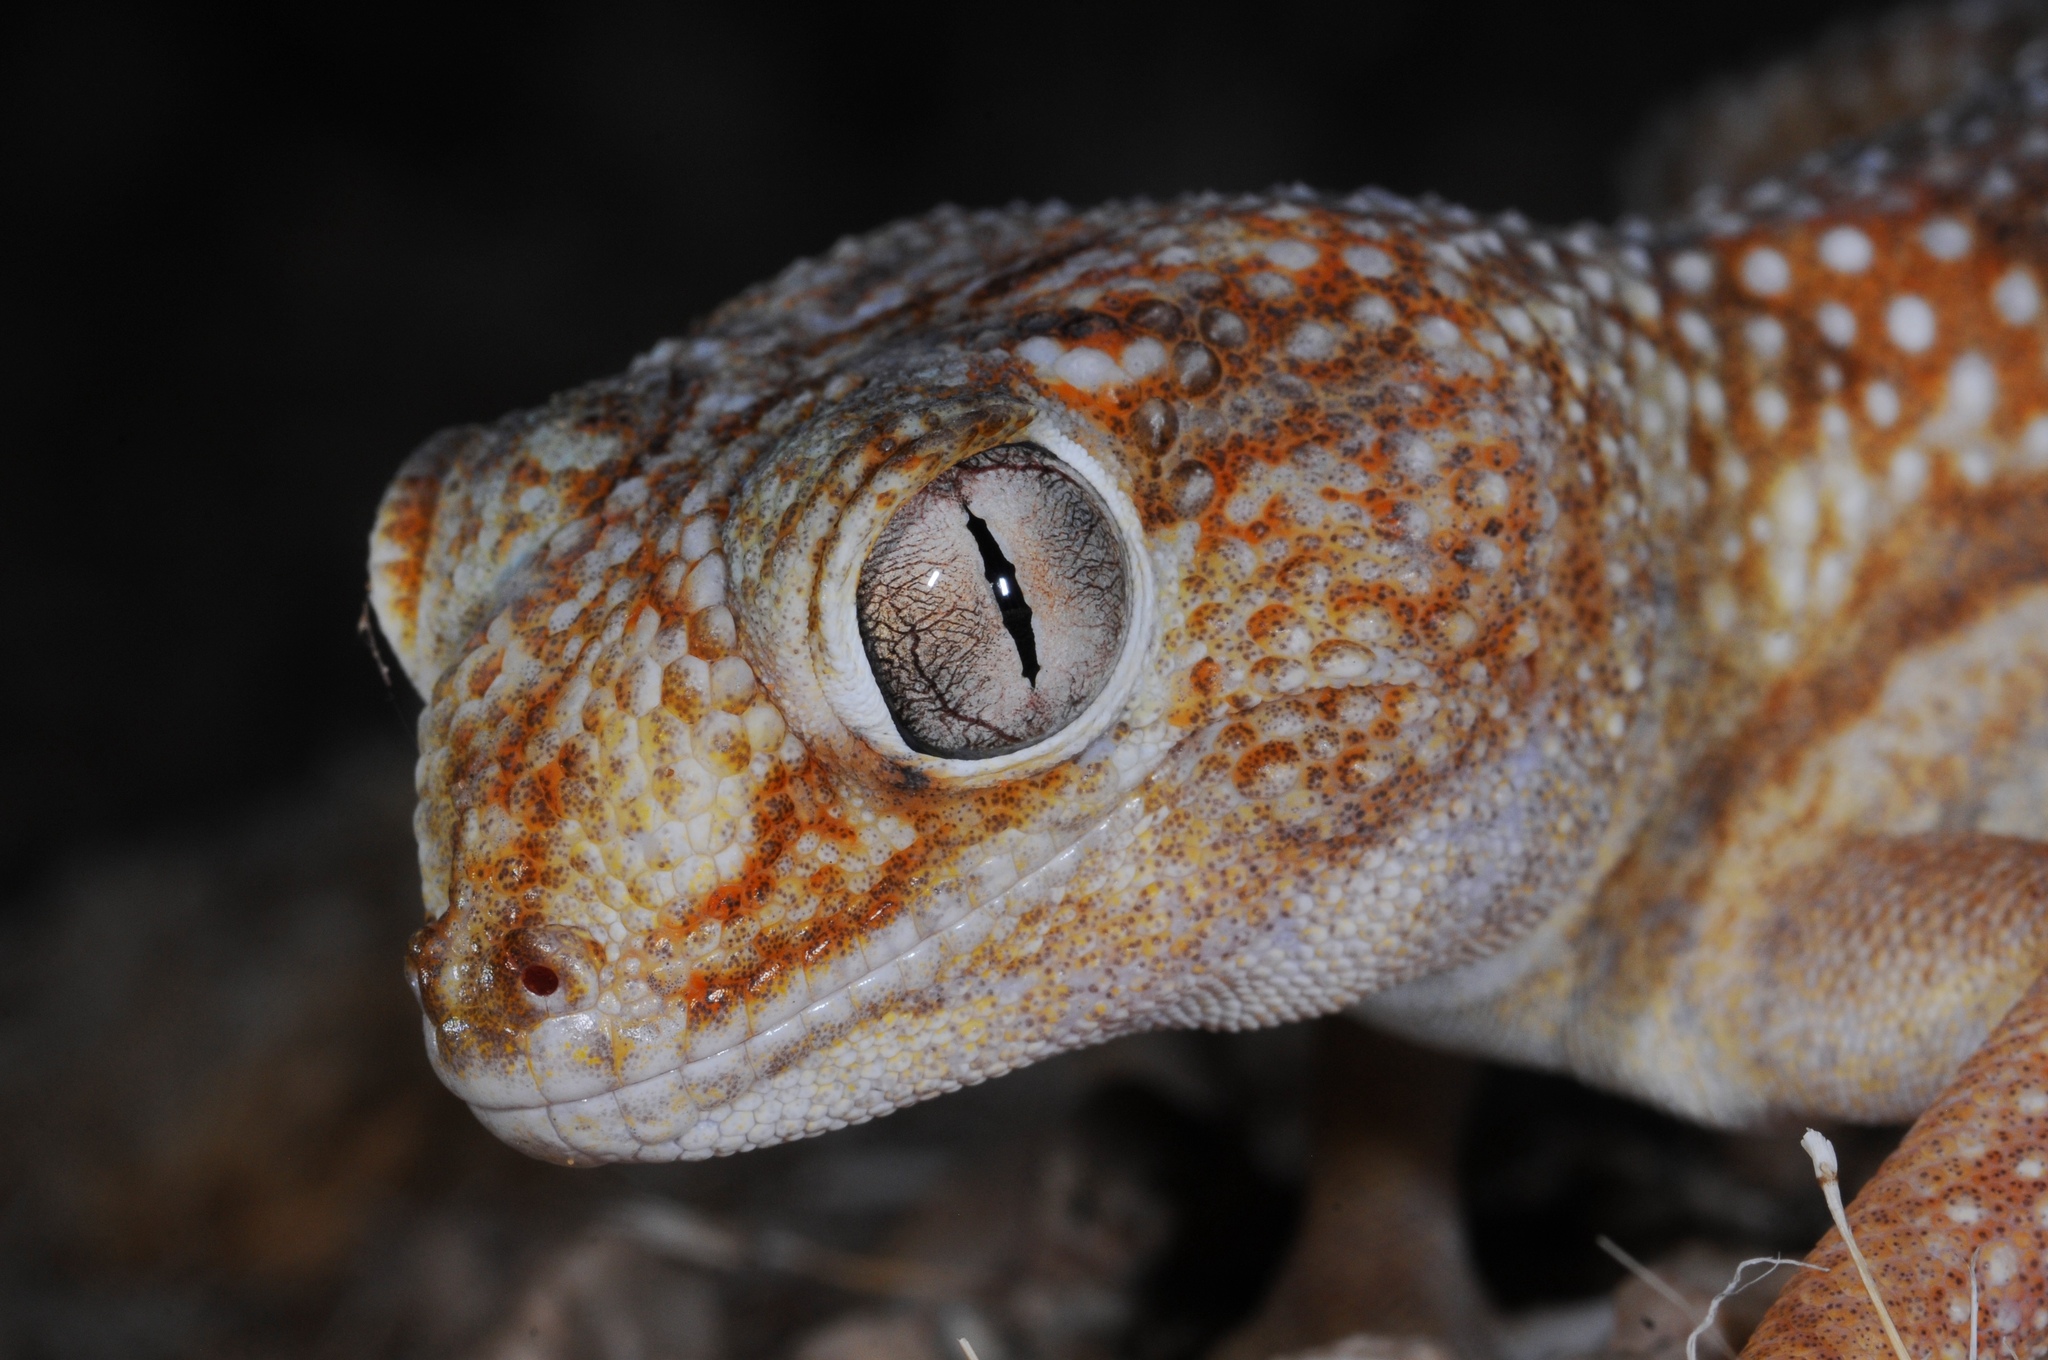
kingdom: Animalia
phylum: Chordata
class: Squamata
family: Gekkonidae
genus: Chondrodactylus
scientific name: Chondrodactylus angulifer
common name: Common giant ground gecko
